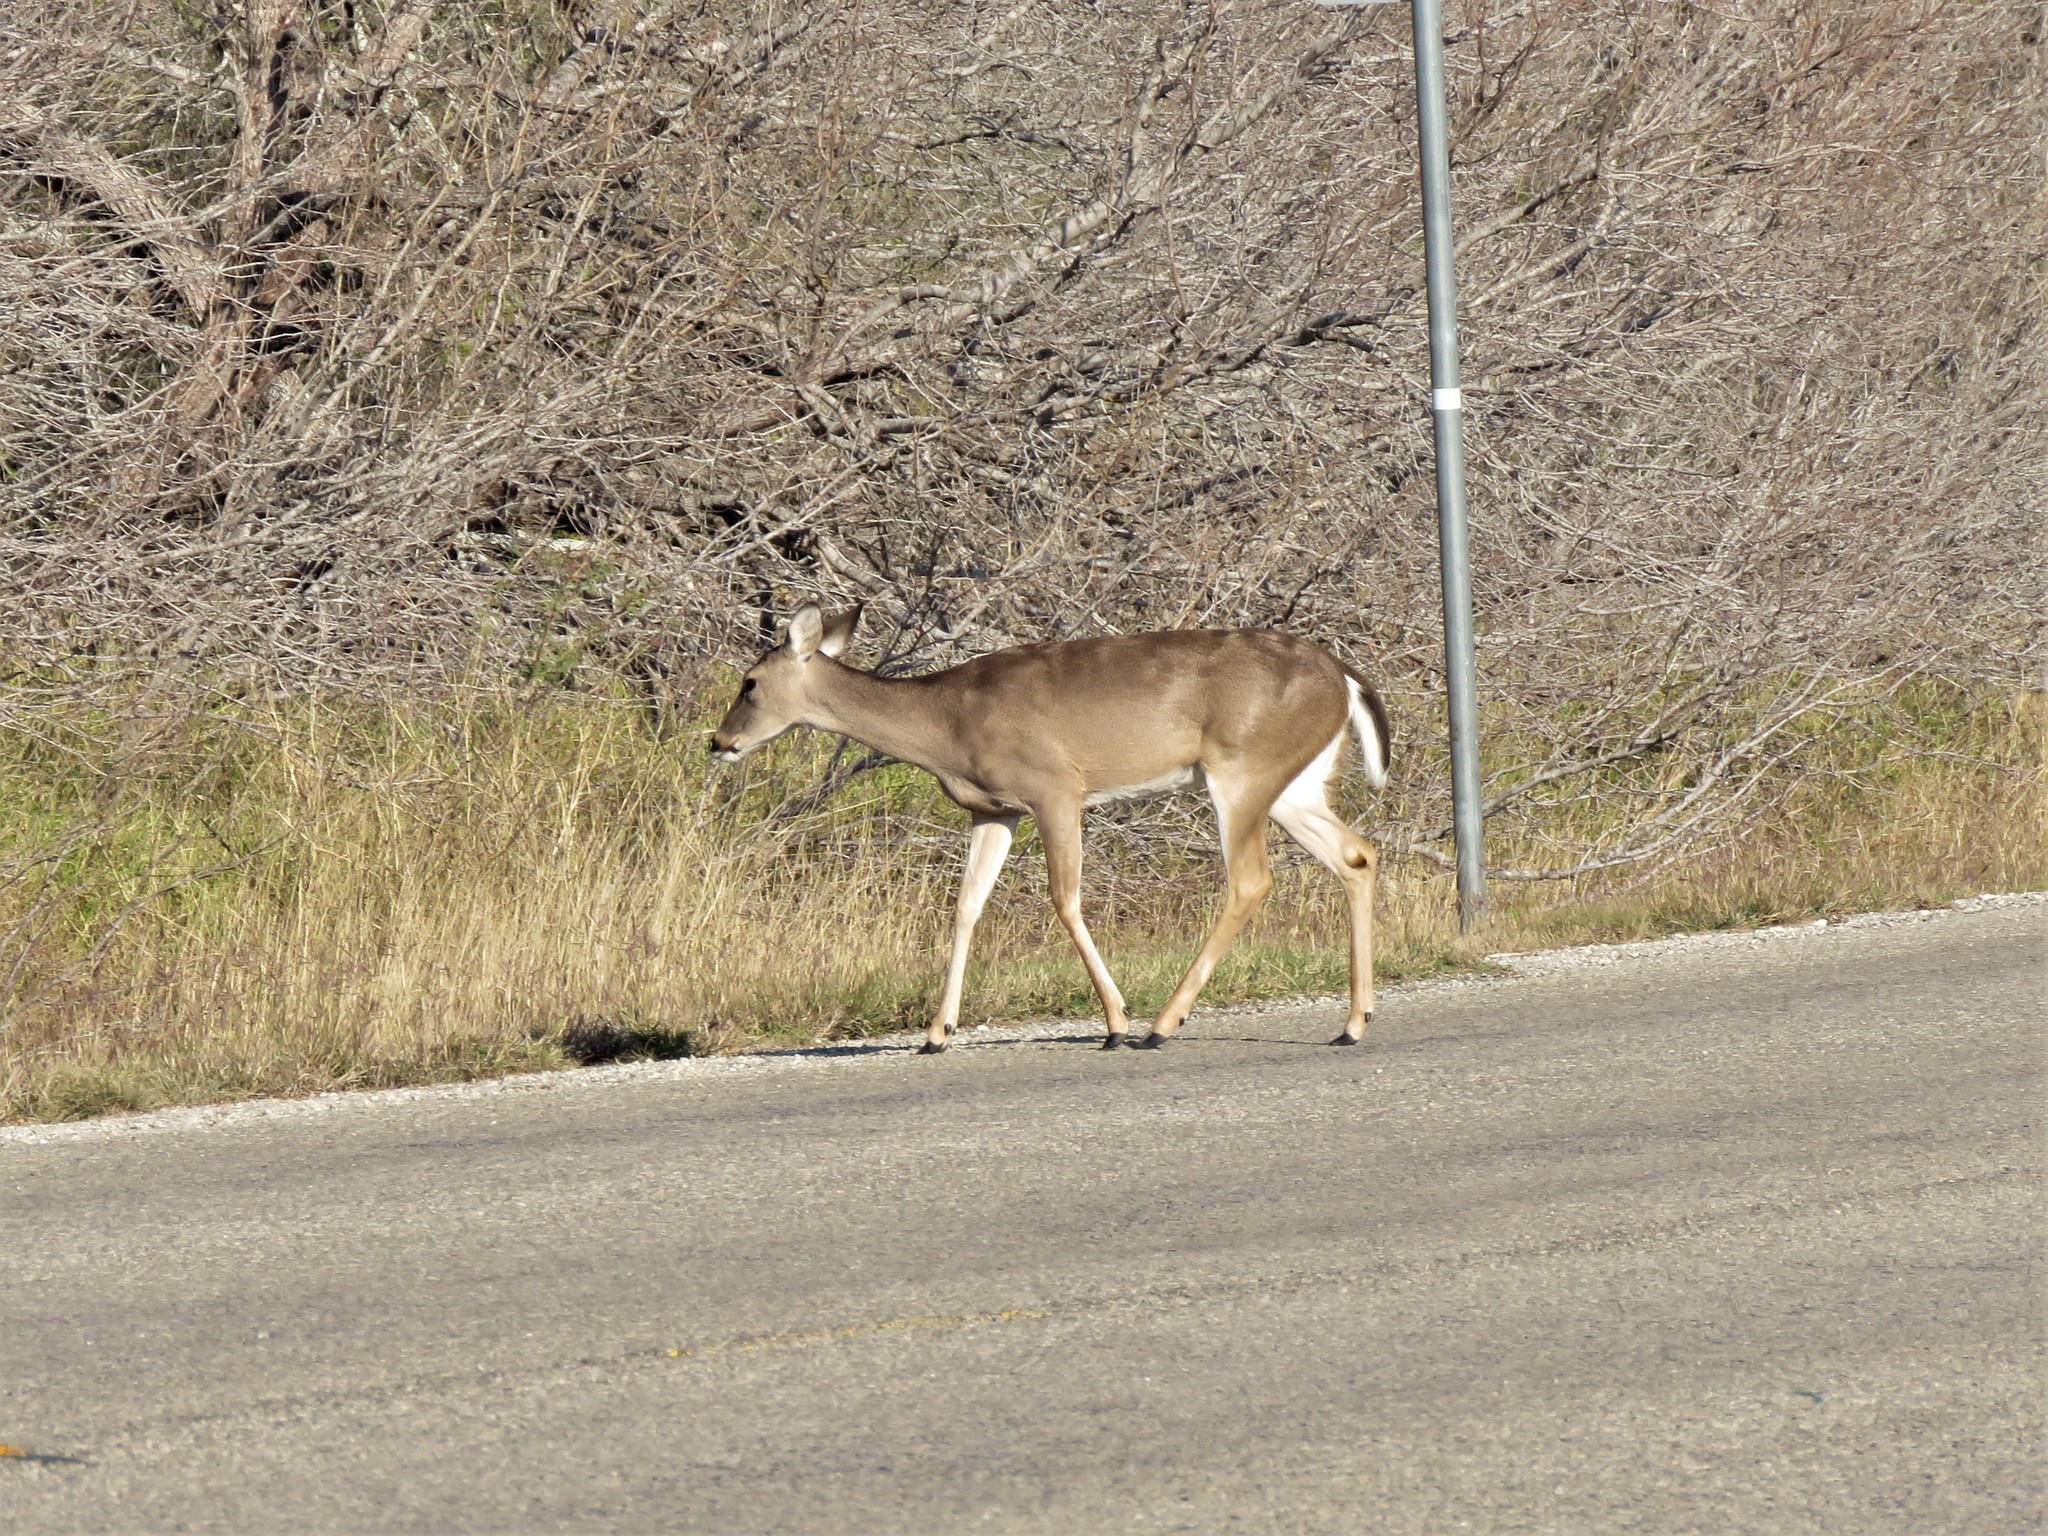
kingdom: Animalia
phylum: Chordata
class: Mammalia
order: Artiodactyla
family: Cervidae
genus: Odocoileus
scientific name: Odocoileus virginianus
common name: White-tailed deer
